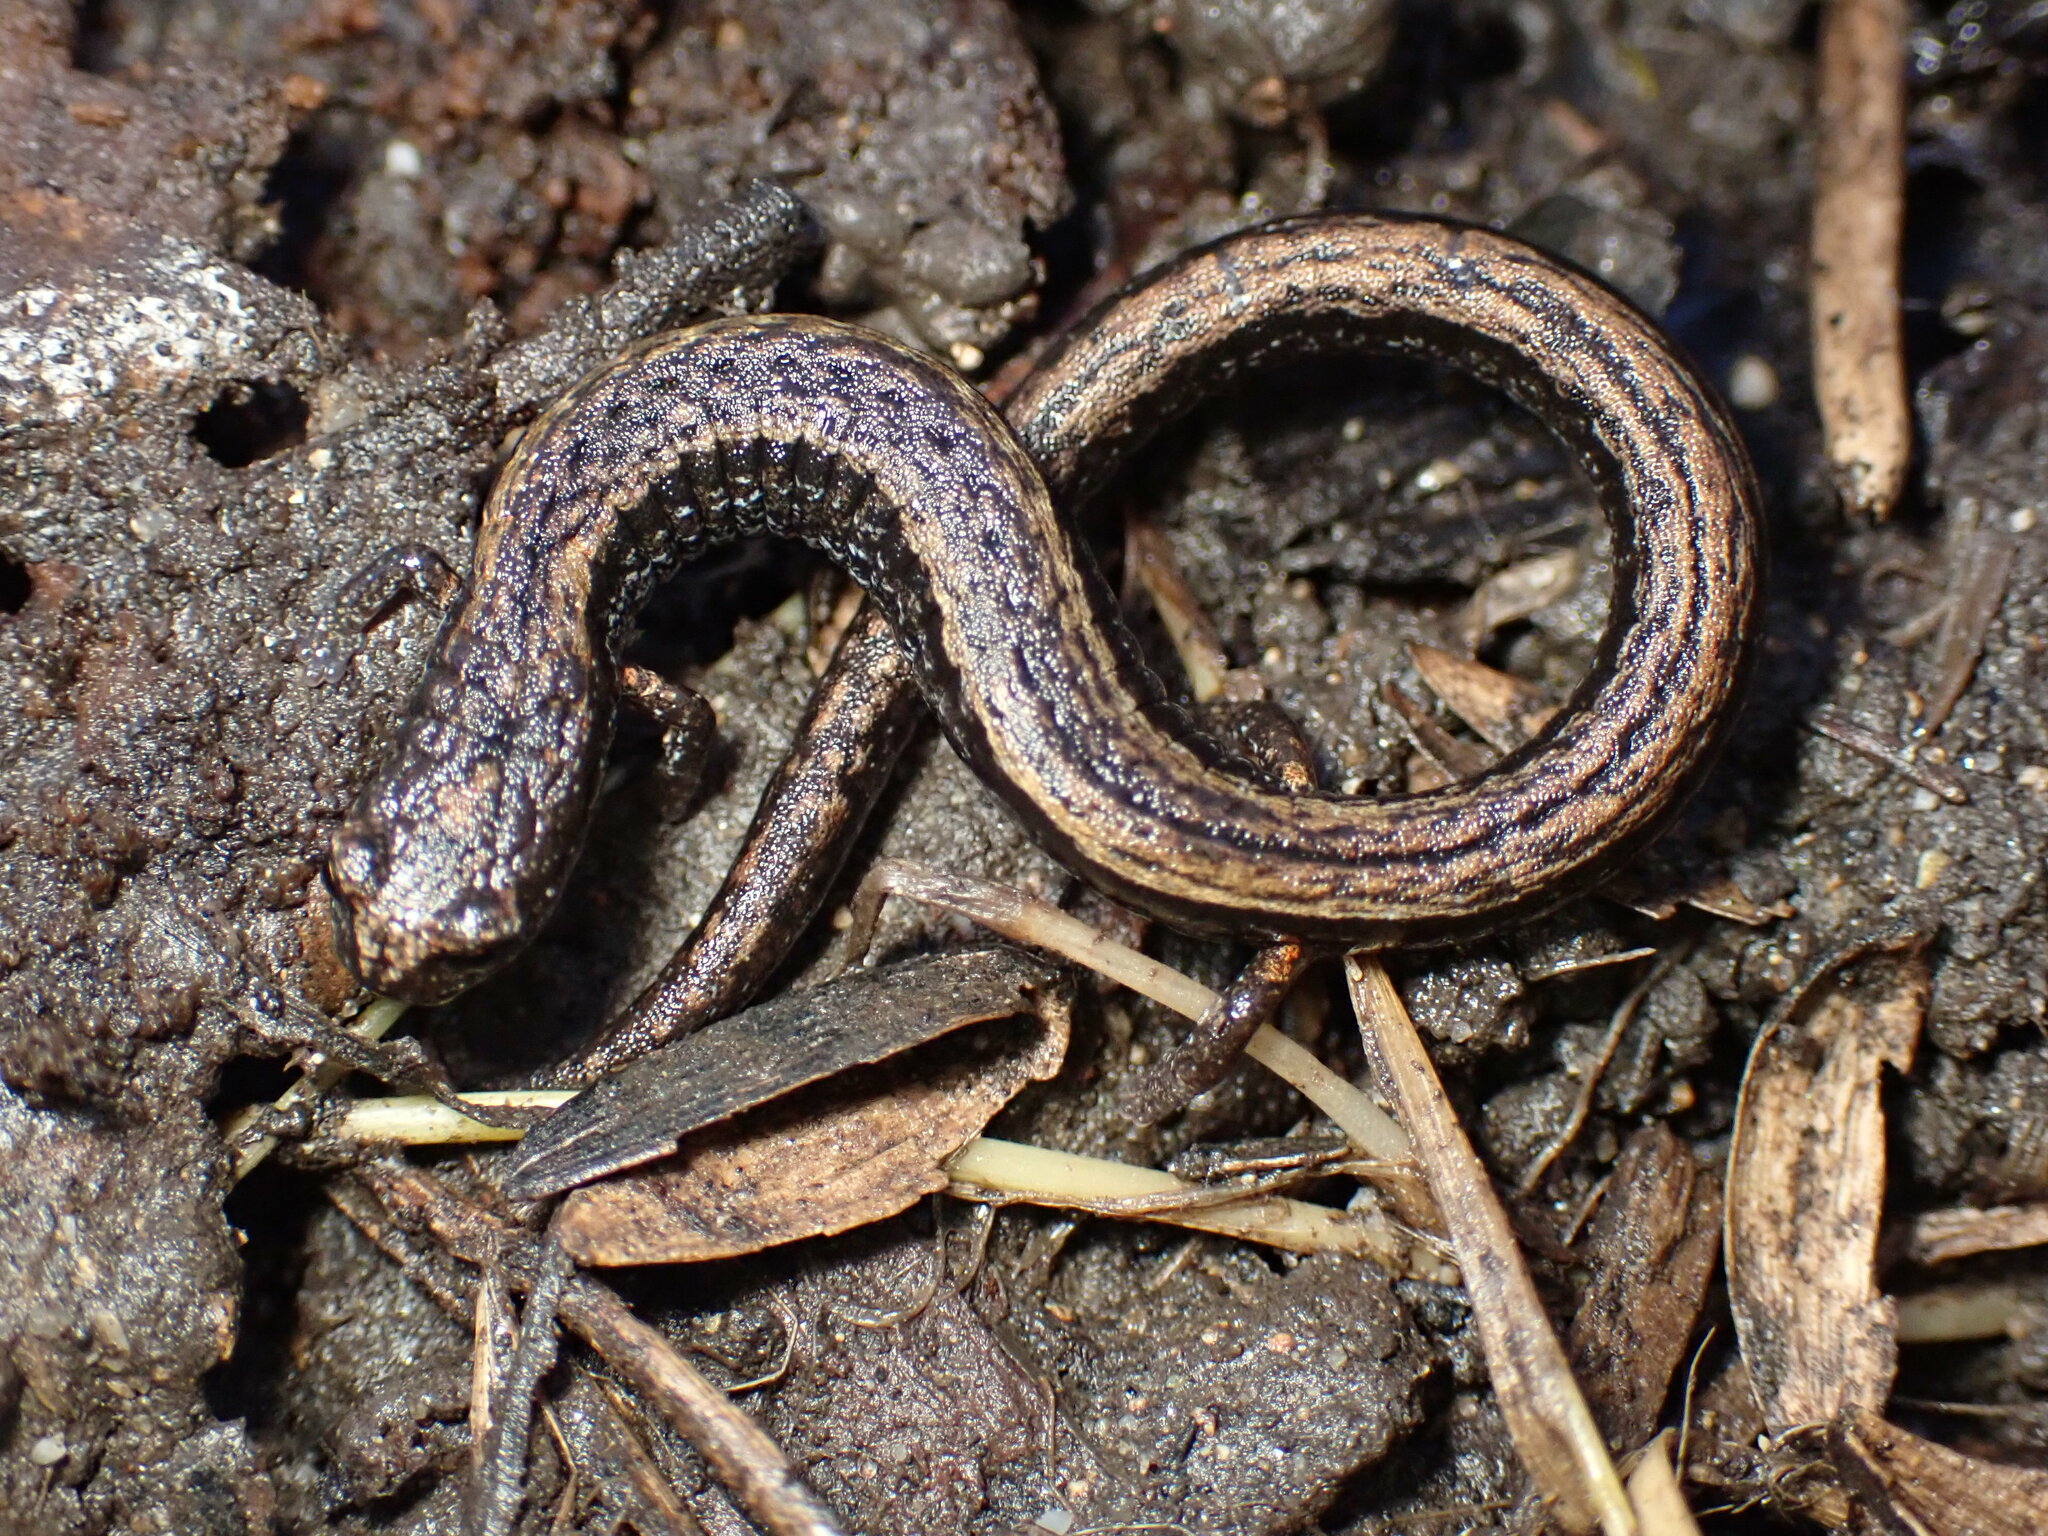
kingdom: Animalia
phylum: Chordata
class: Amphibia
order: Caudata
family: Plethodontidae
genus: Batrachoseps
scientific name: Batrachoseps attenuatus
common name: California slender salamander
